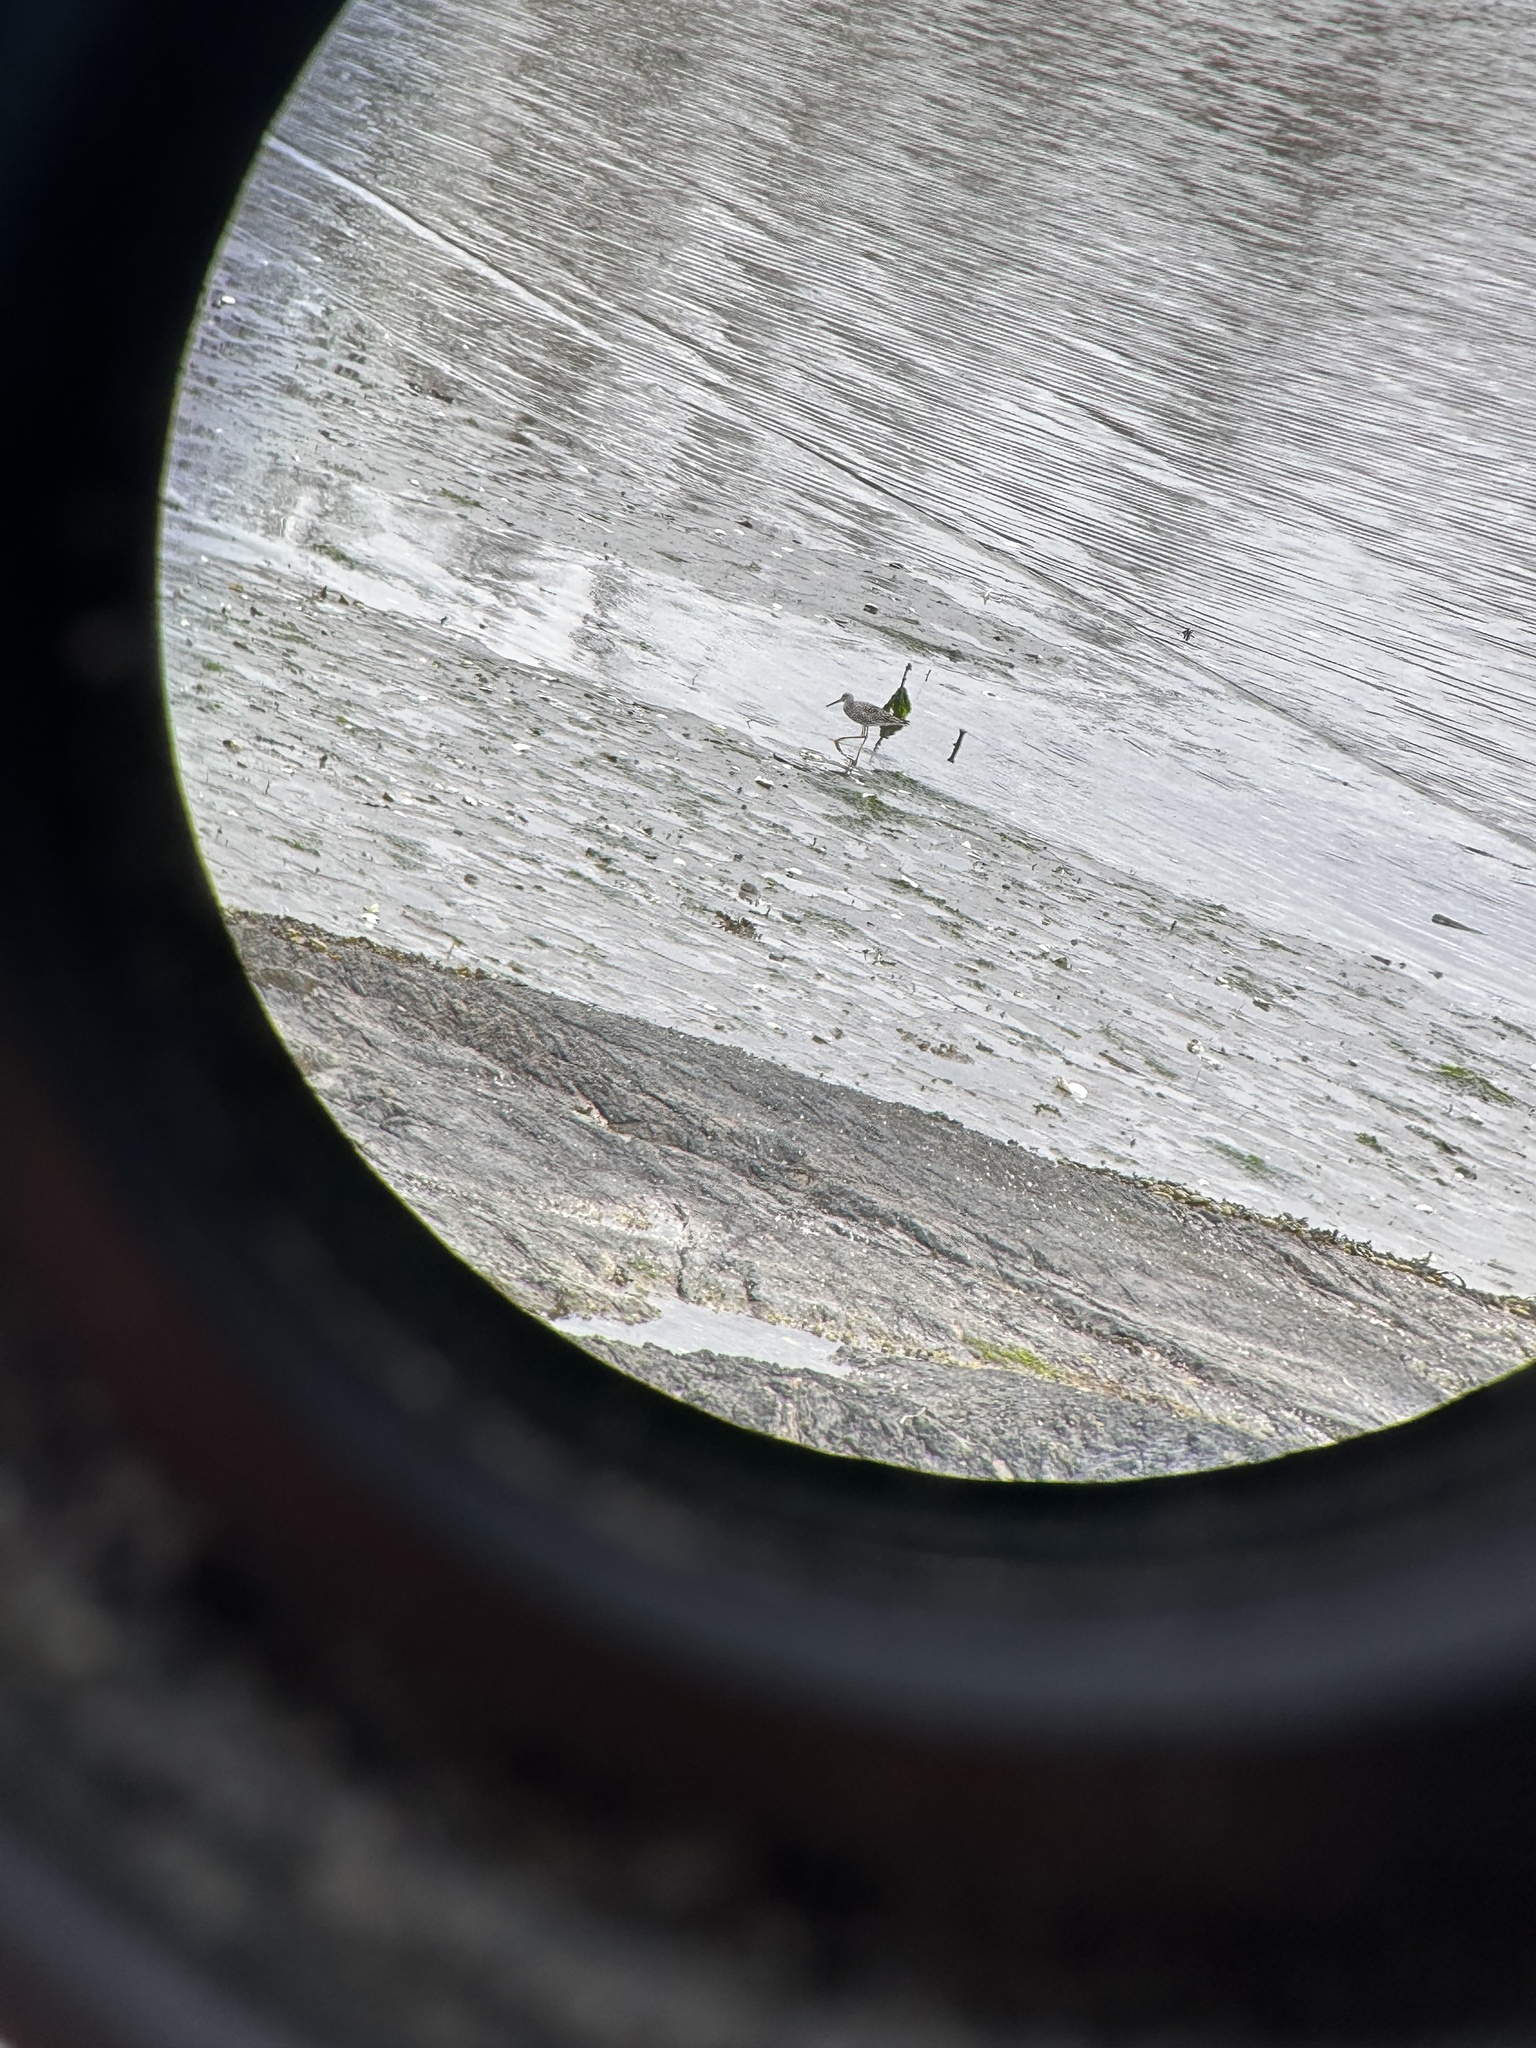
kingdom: Animalia
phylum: Chordata
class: Aves
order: Charadriiformes
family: Scolopacidae
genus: Tringa
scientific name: Tringa melanoleuca
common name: Greater yellowlegs
